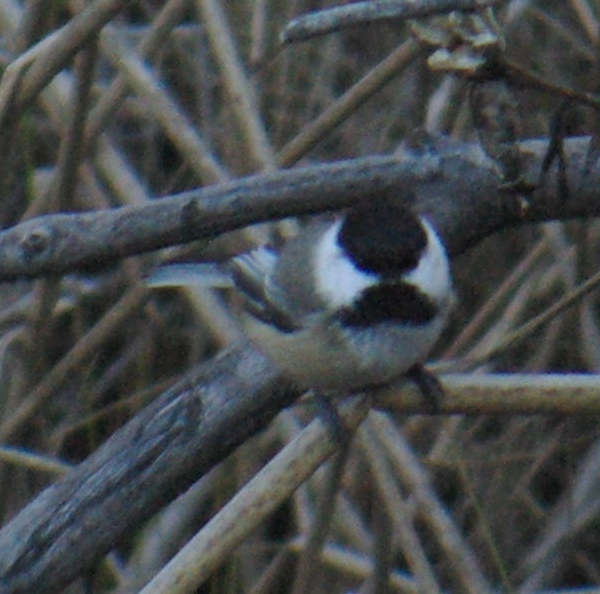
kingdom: Animalia
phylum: Chordata
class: Aves
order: Passeriformes
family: Paridae
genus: Poecile
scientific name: Poecile atricapillus
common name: Black-capped chickadee
